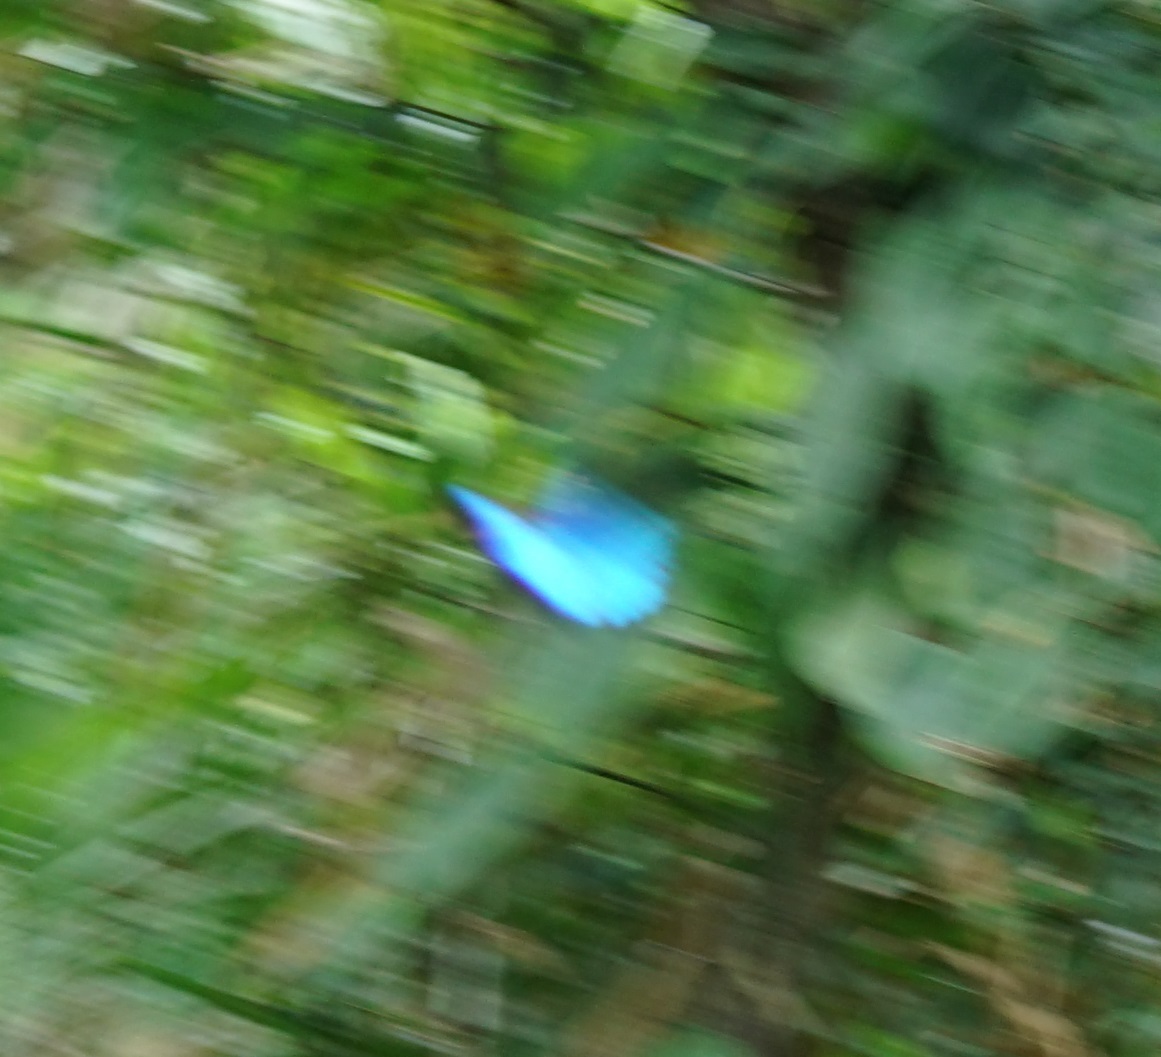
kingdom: Animalia
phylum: Arthropoda
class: Insecta
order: Lepidoptera
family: Papilionidae
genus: Papilio
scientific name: Papilio ulysses
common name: Blue emperor
